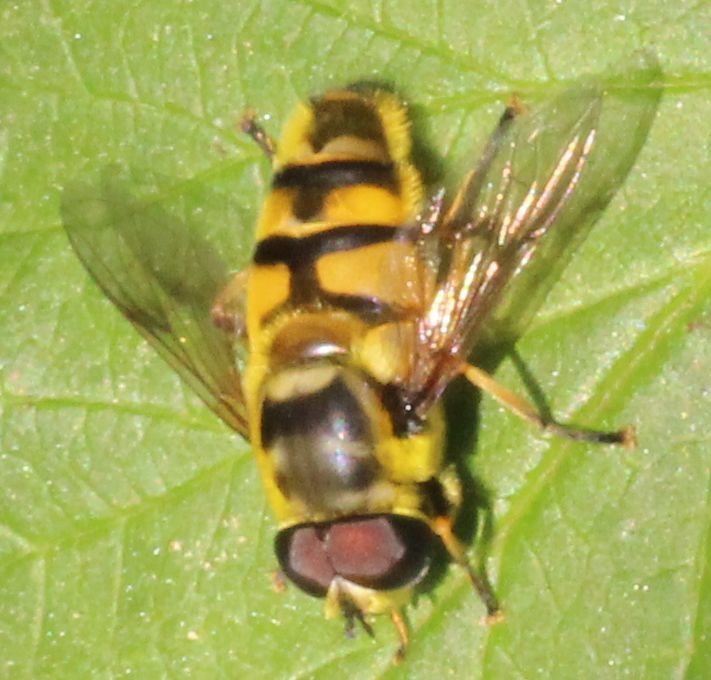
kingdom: Animalia
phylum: Arthropoda
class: Insecta
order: Diptera
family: Syrphidae
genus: Myathropa
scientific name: Myathropa florea
